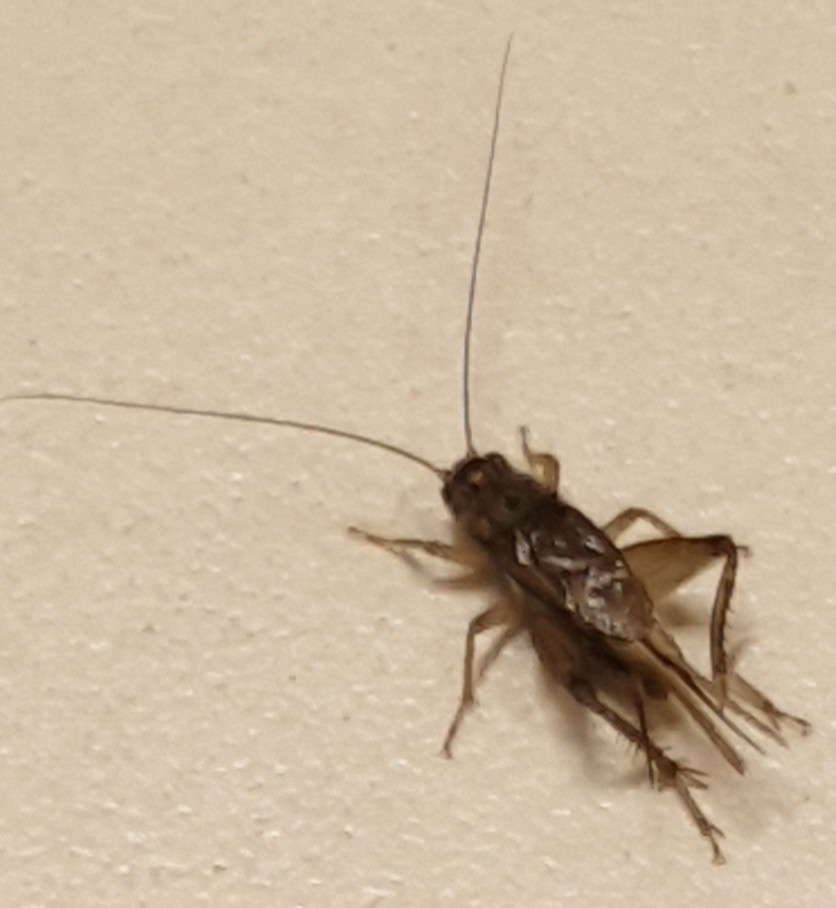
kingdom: Animalia
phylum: Arthropoda
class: Insecta
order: Orthoptera
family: Gryllidae
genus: Acheta
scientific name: Acheta domesticus
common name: House cricket
